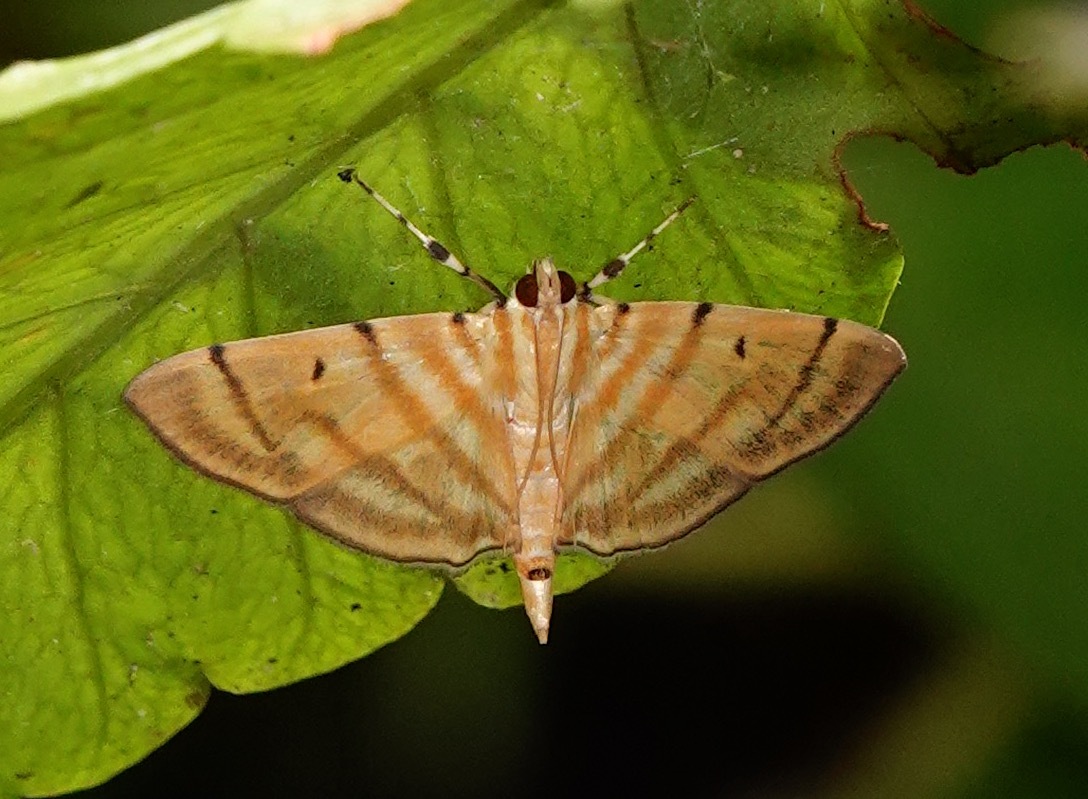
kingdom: Animalia
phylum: Arthropoda
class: Insecta
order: Lepidoptera
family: Crambidae
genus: Orthospila
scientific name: Orthospila orissusalis
